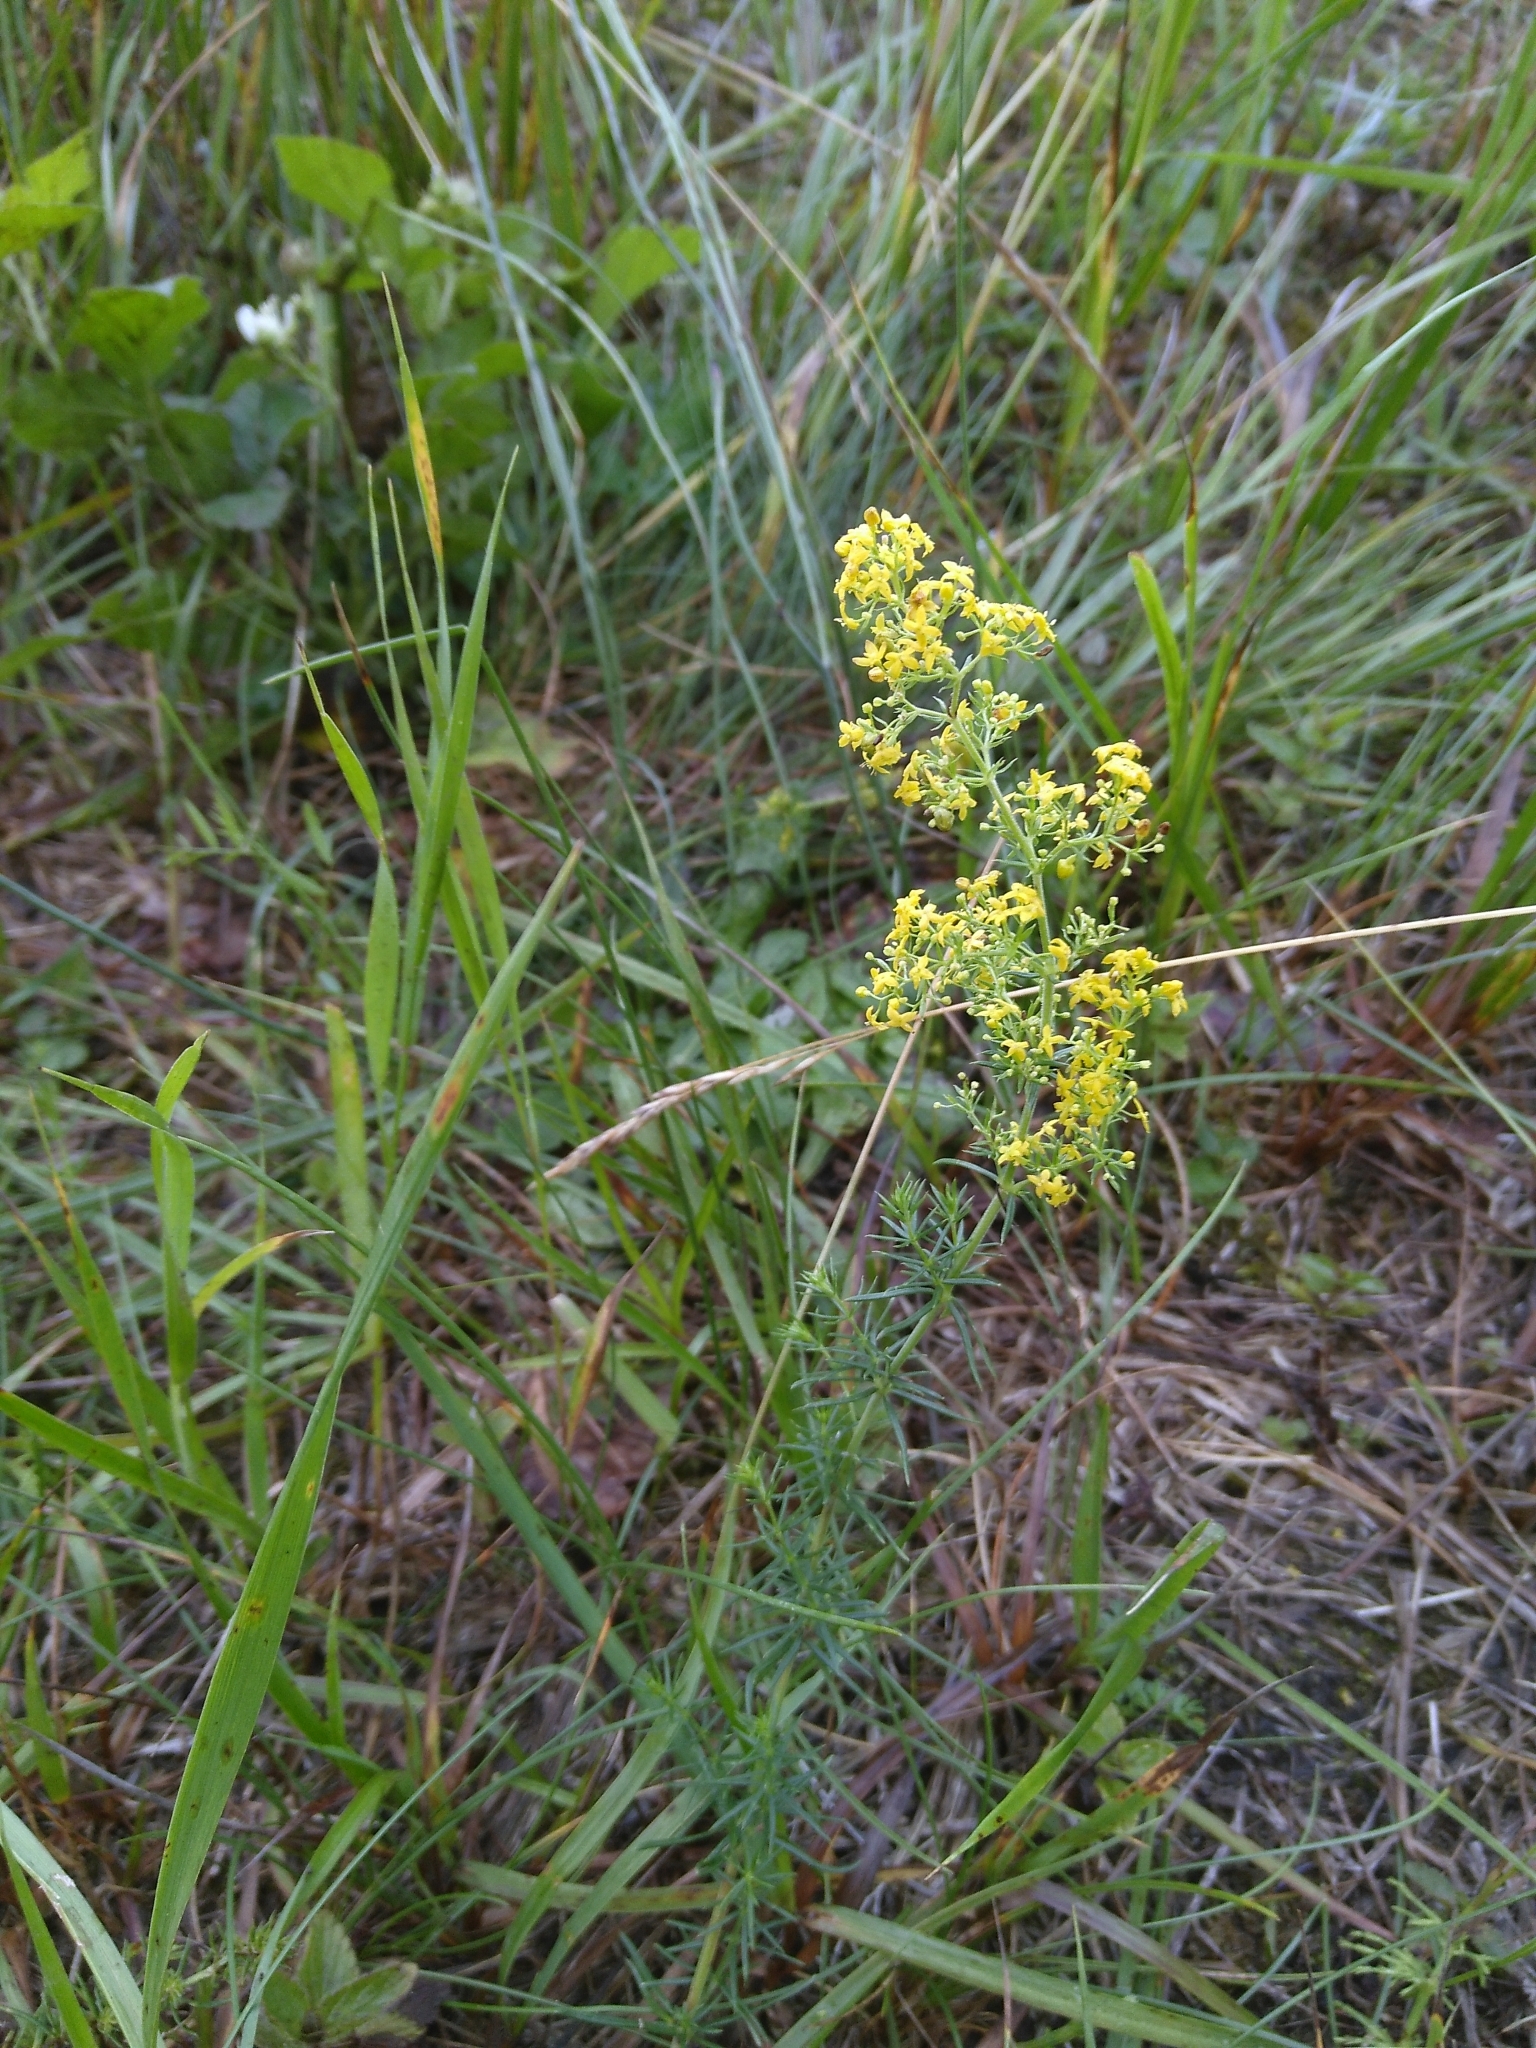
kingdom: Plantae
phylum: Tracheophyta
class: Magnoliopsida
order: Gentianales
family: Rubiaceae
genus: Galium
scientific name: Galium verum
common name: Lady's bedstraw
